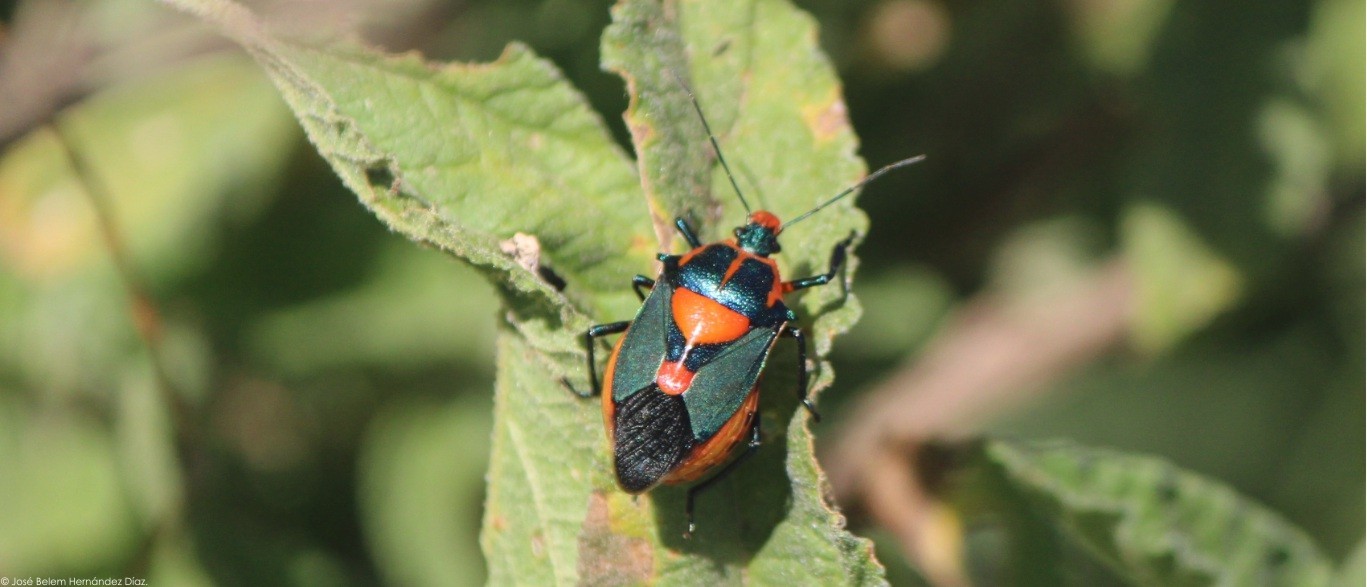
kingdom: Animalia
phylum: Arthropoda
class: Insecta
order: Hemiptera
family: Pentatomidae
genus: Euthyrhynchus
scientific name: Euthyrhynchus floridanus
